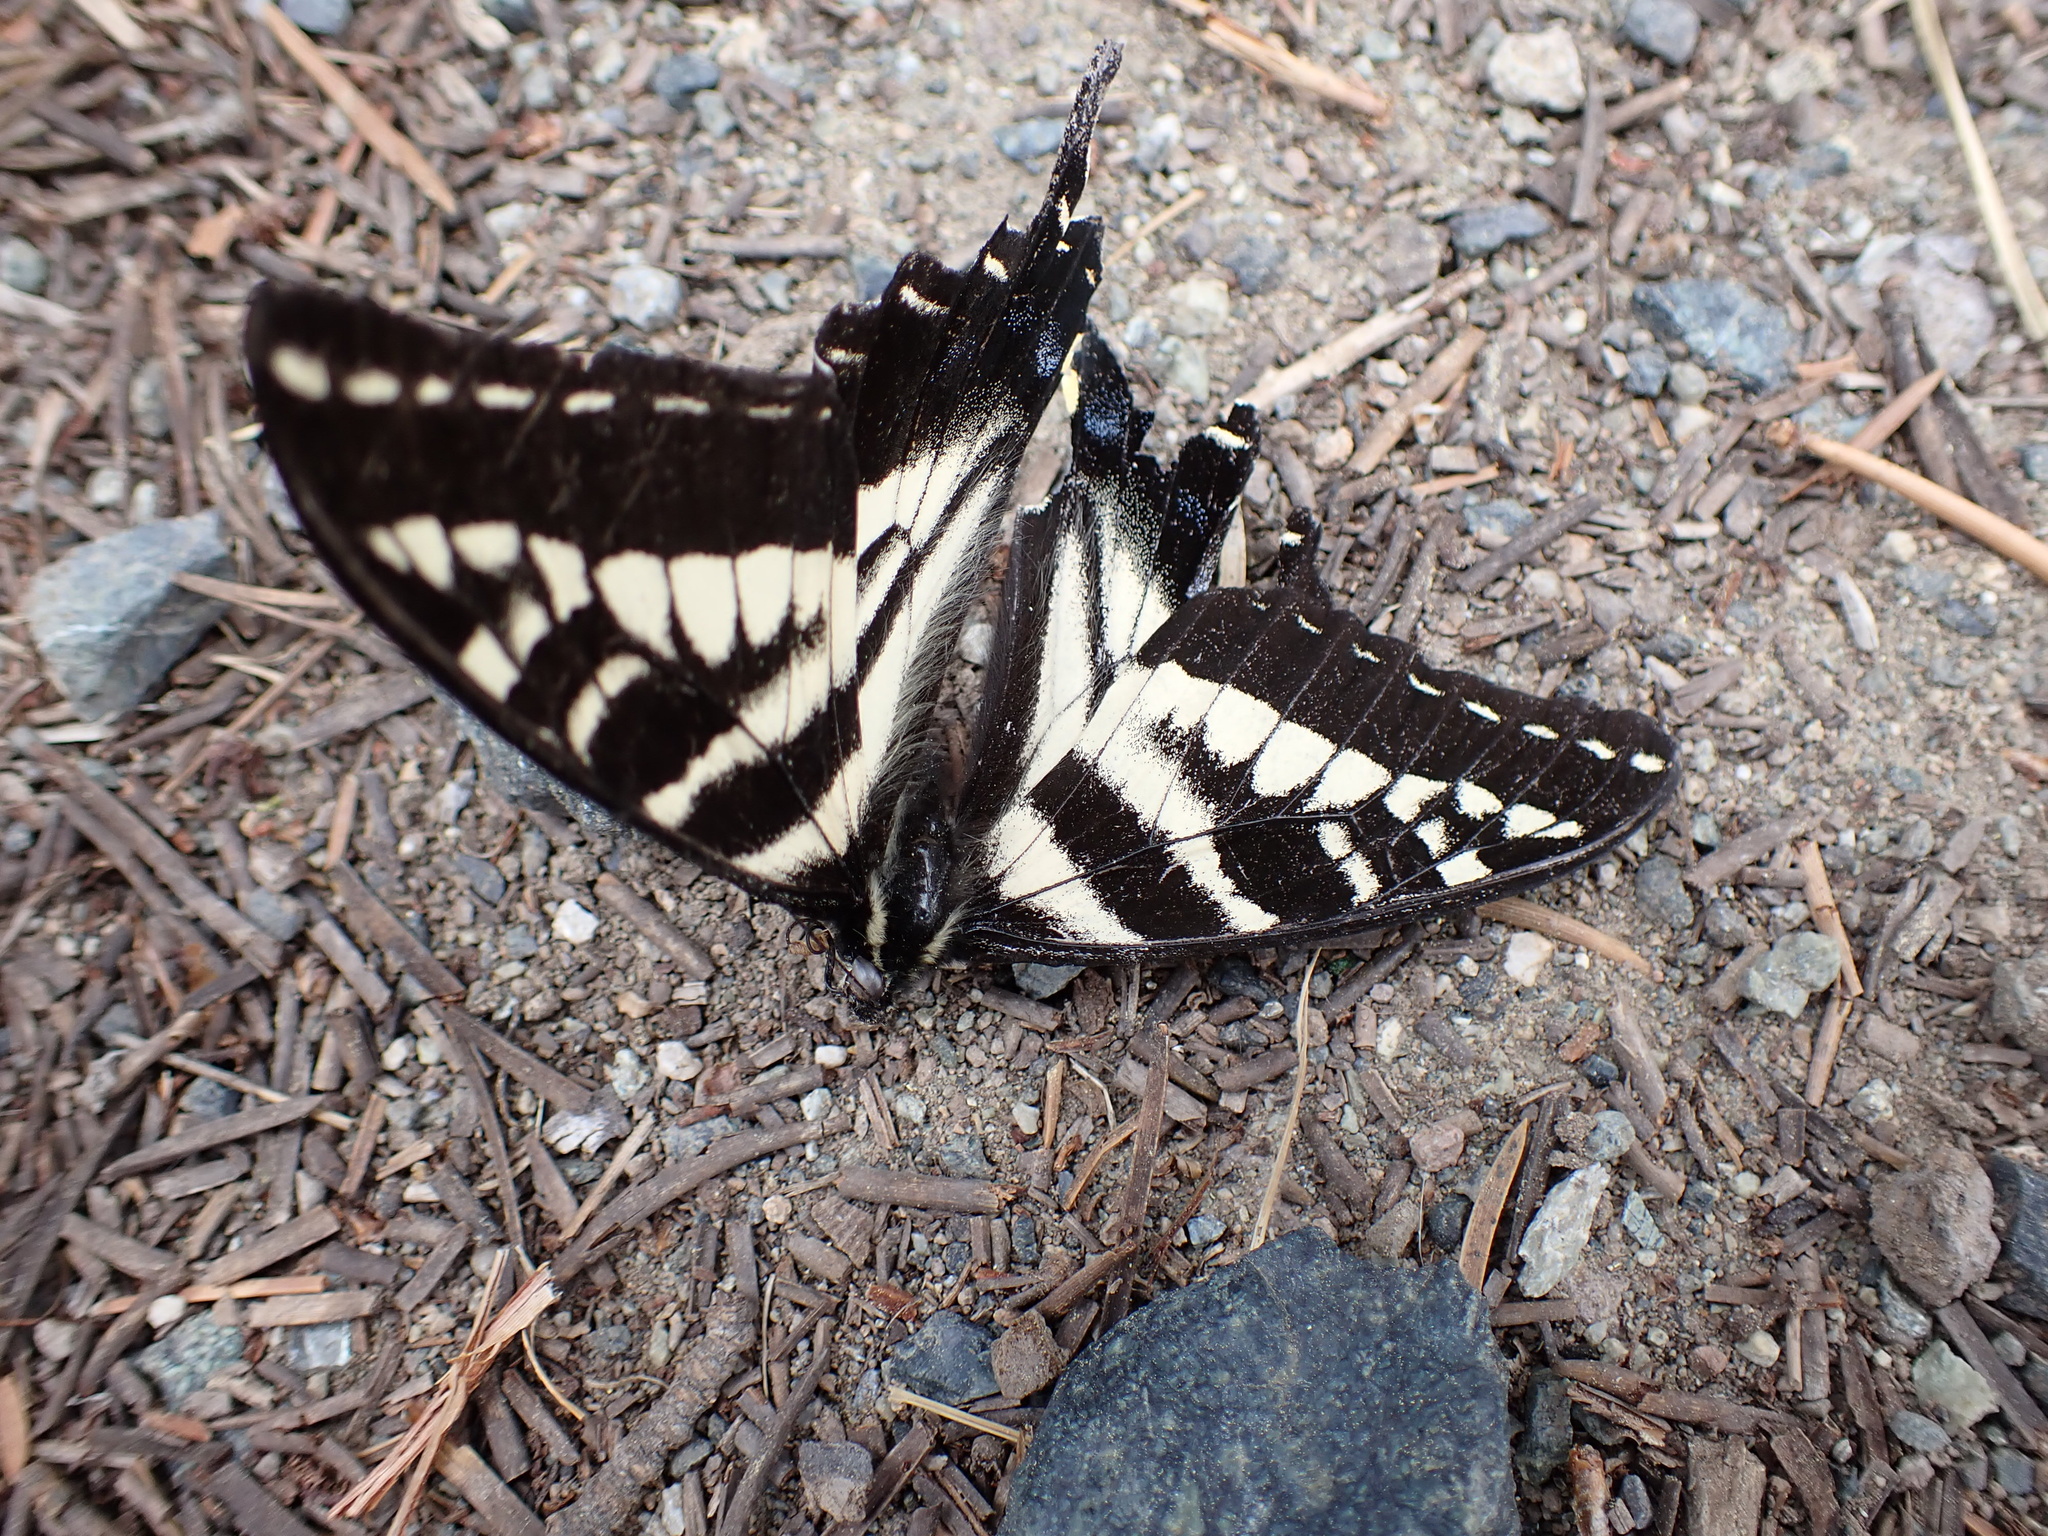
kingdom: Animalia
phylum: Arthropoda
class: Insecta
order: Lepidoptera
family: Papilionidae
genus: Papilio
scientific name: Papilio eurymedon
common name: Pale tiger swallowtail
